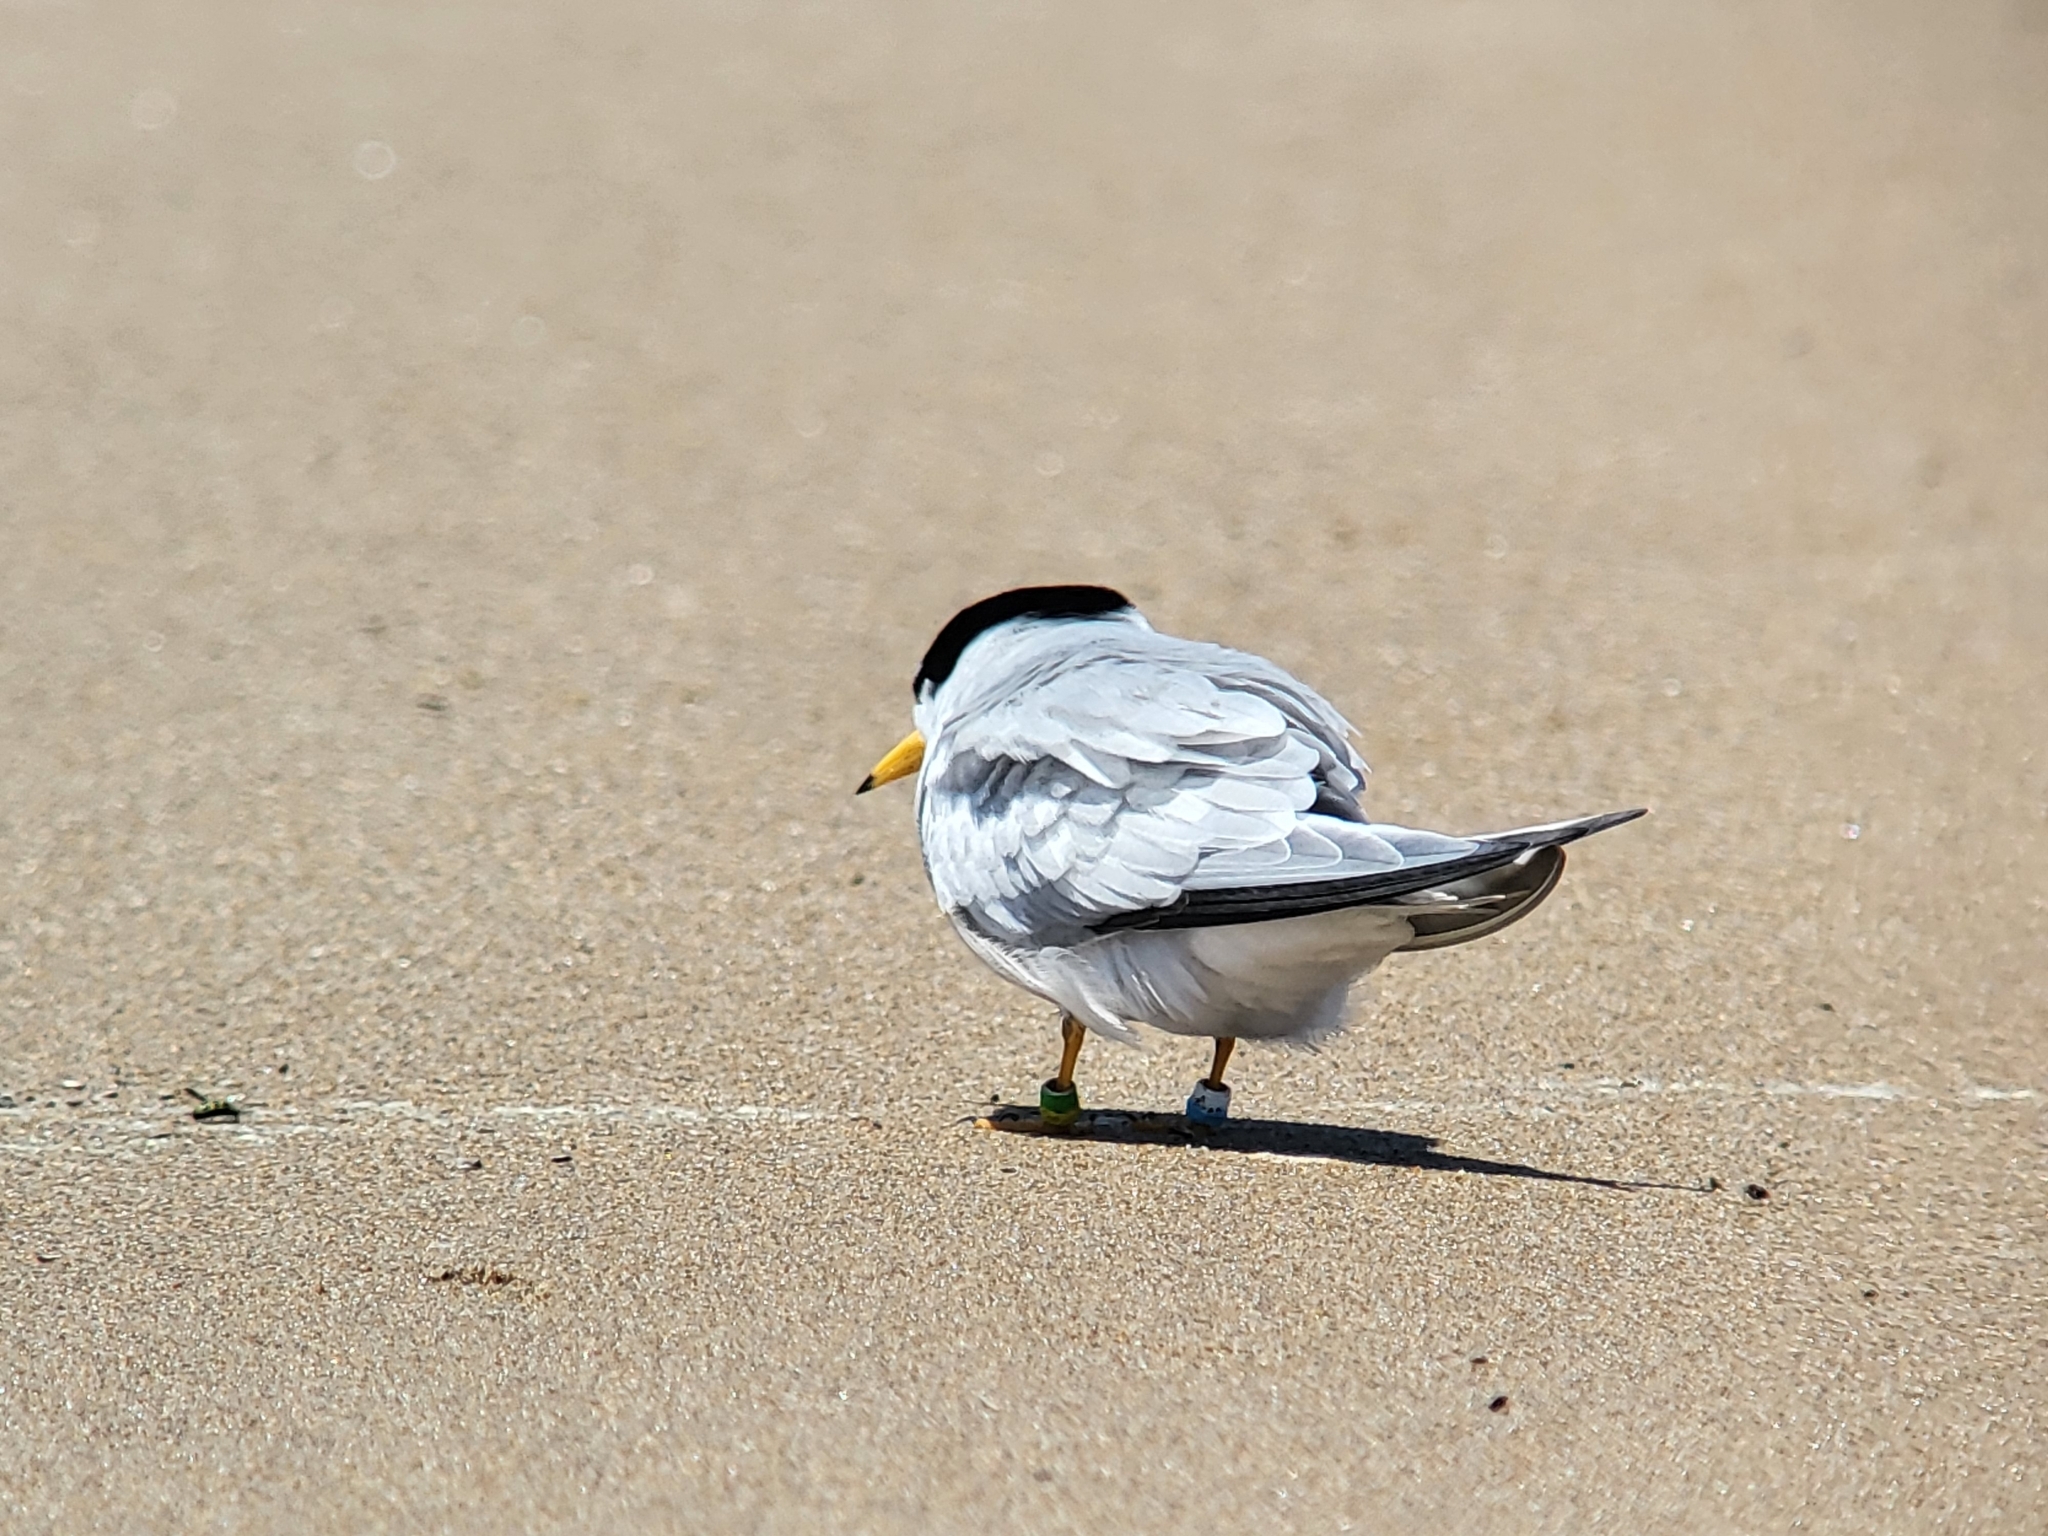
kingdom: Animalia
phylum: Chordata
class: Aves
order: Charadriiformes
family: Laridae
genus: Sternula
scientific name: Sternula antillarum
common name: Least tern
